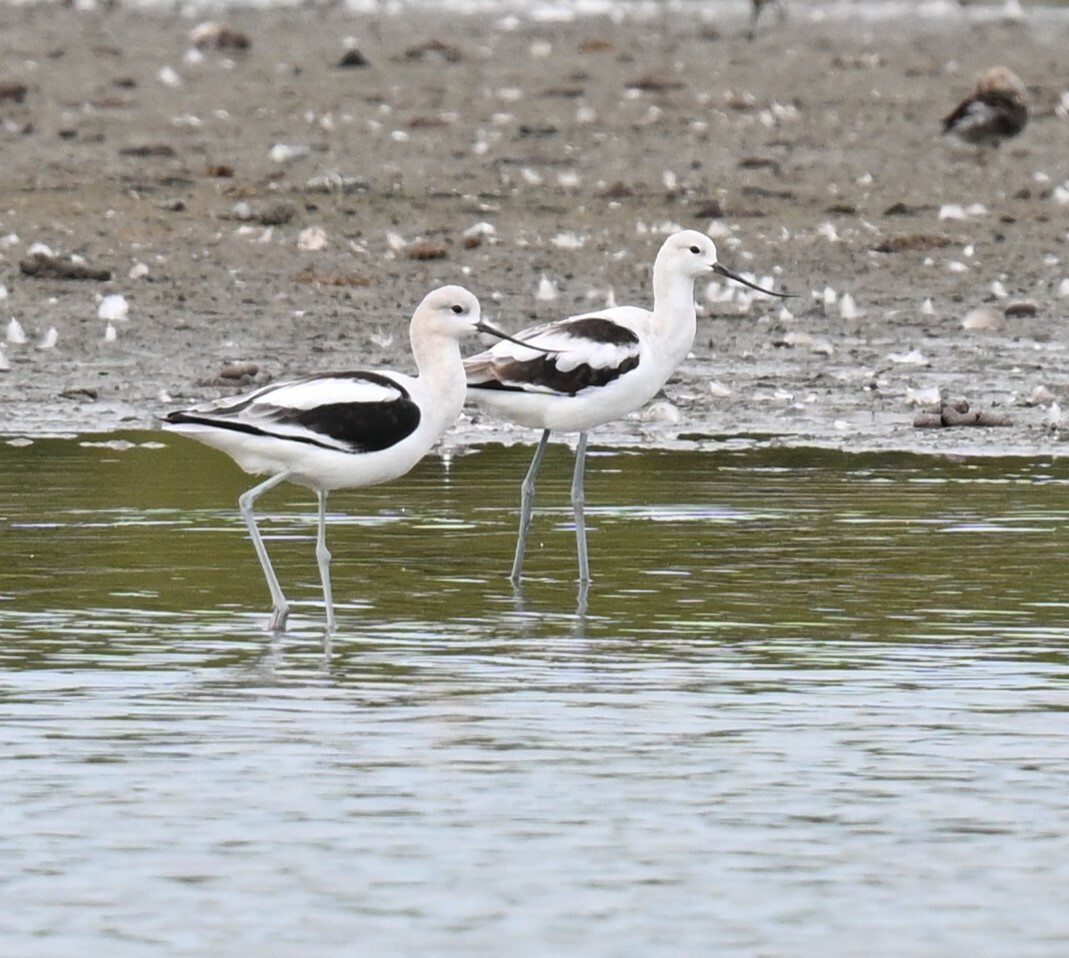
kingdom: Animalia
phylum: Chordata
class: Aves
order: Charadriiformes
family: Recurvirostridae
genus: Recurvirostra
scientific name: Recurvirostra americana
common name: American avocet
